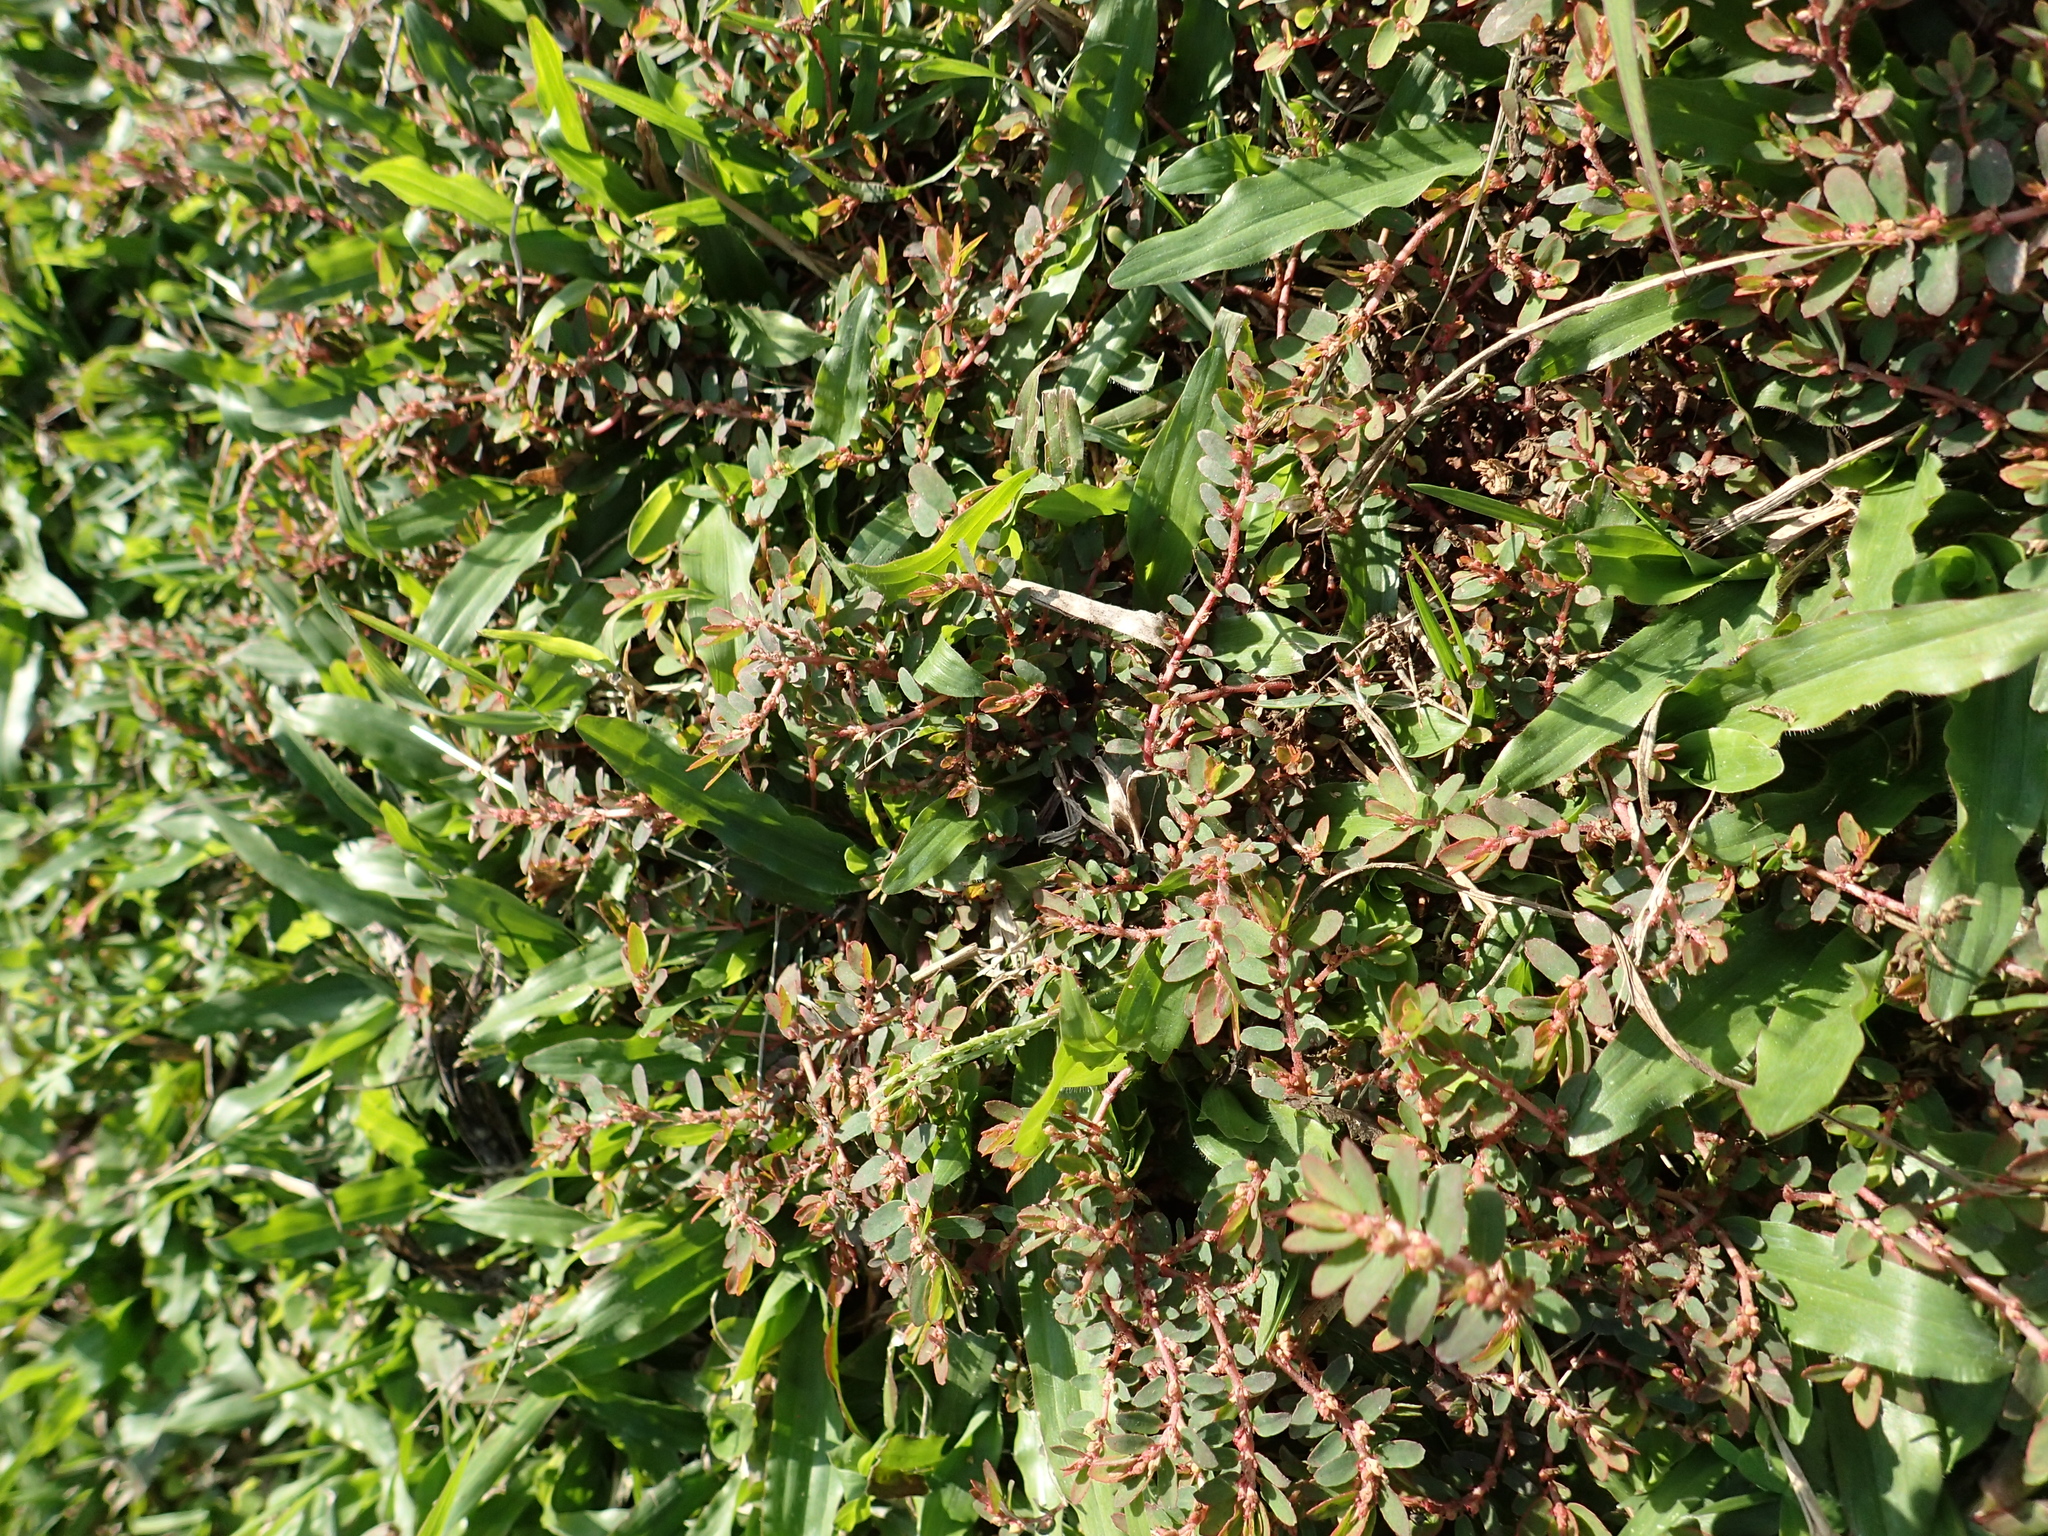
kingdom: Plantae
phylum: Tracheophyta
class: Magnoliopsida
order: Malpighiales
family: Euphorbiaceae
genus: Euphorbia
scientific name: Euphorbia thymifolia
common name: Gulf sandmat
